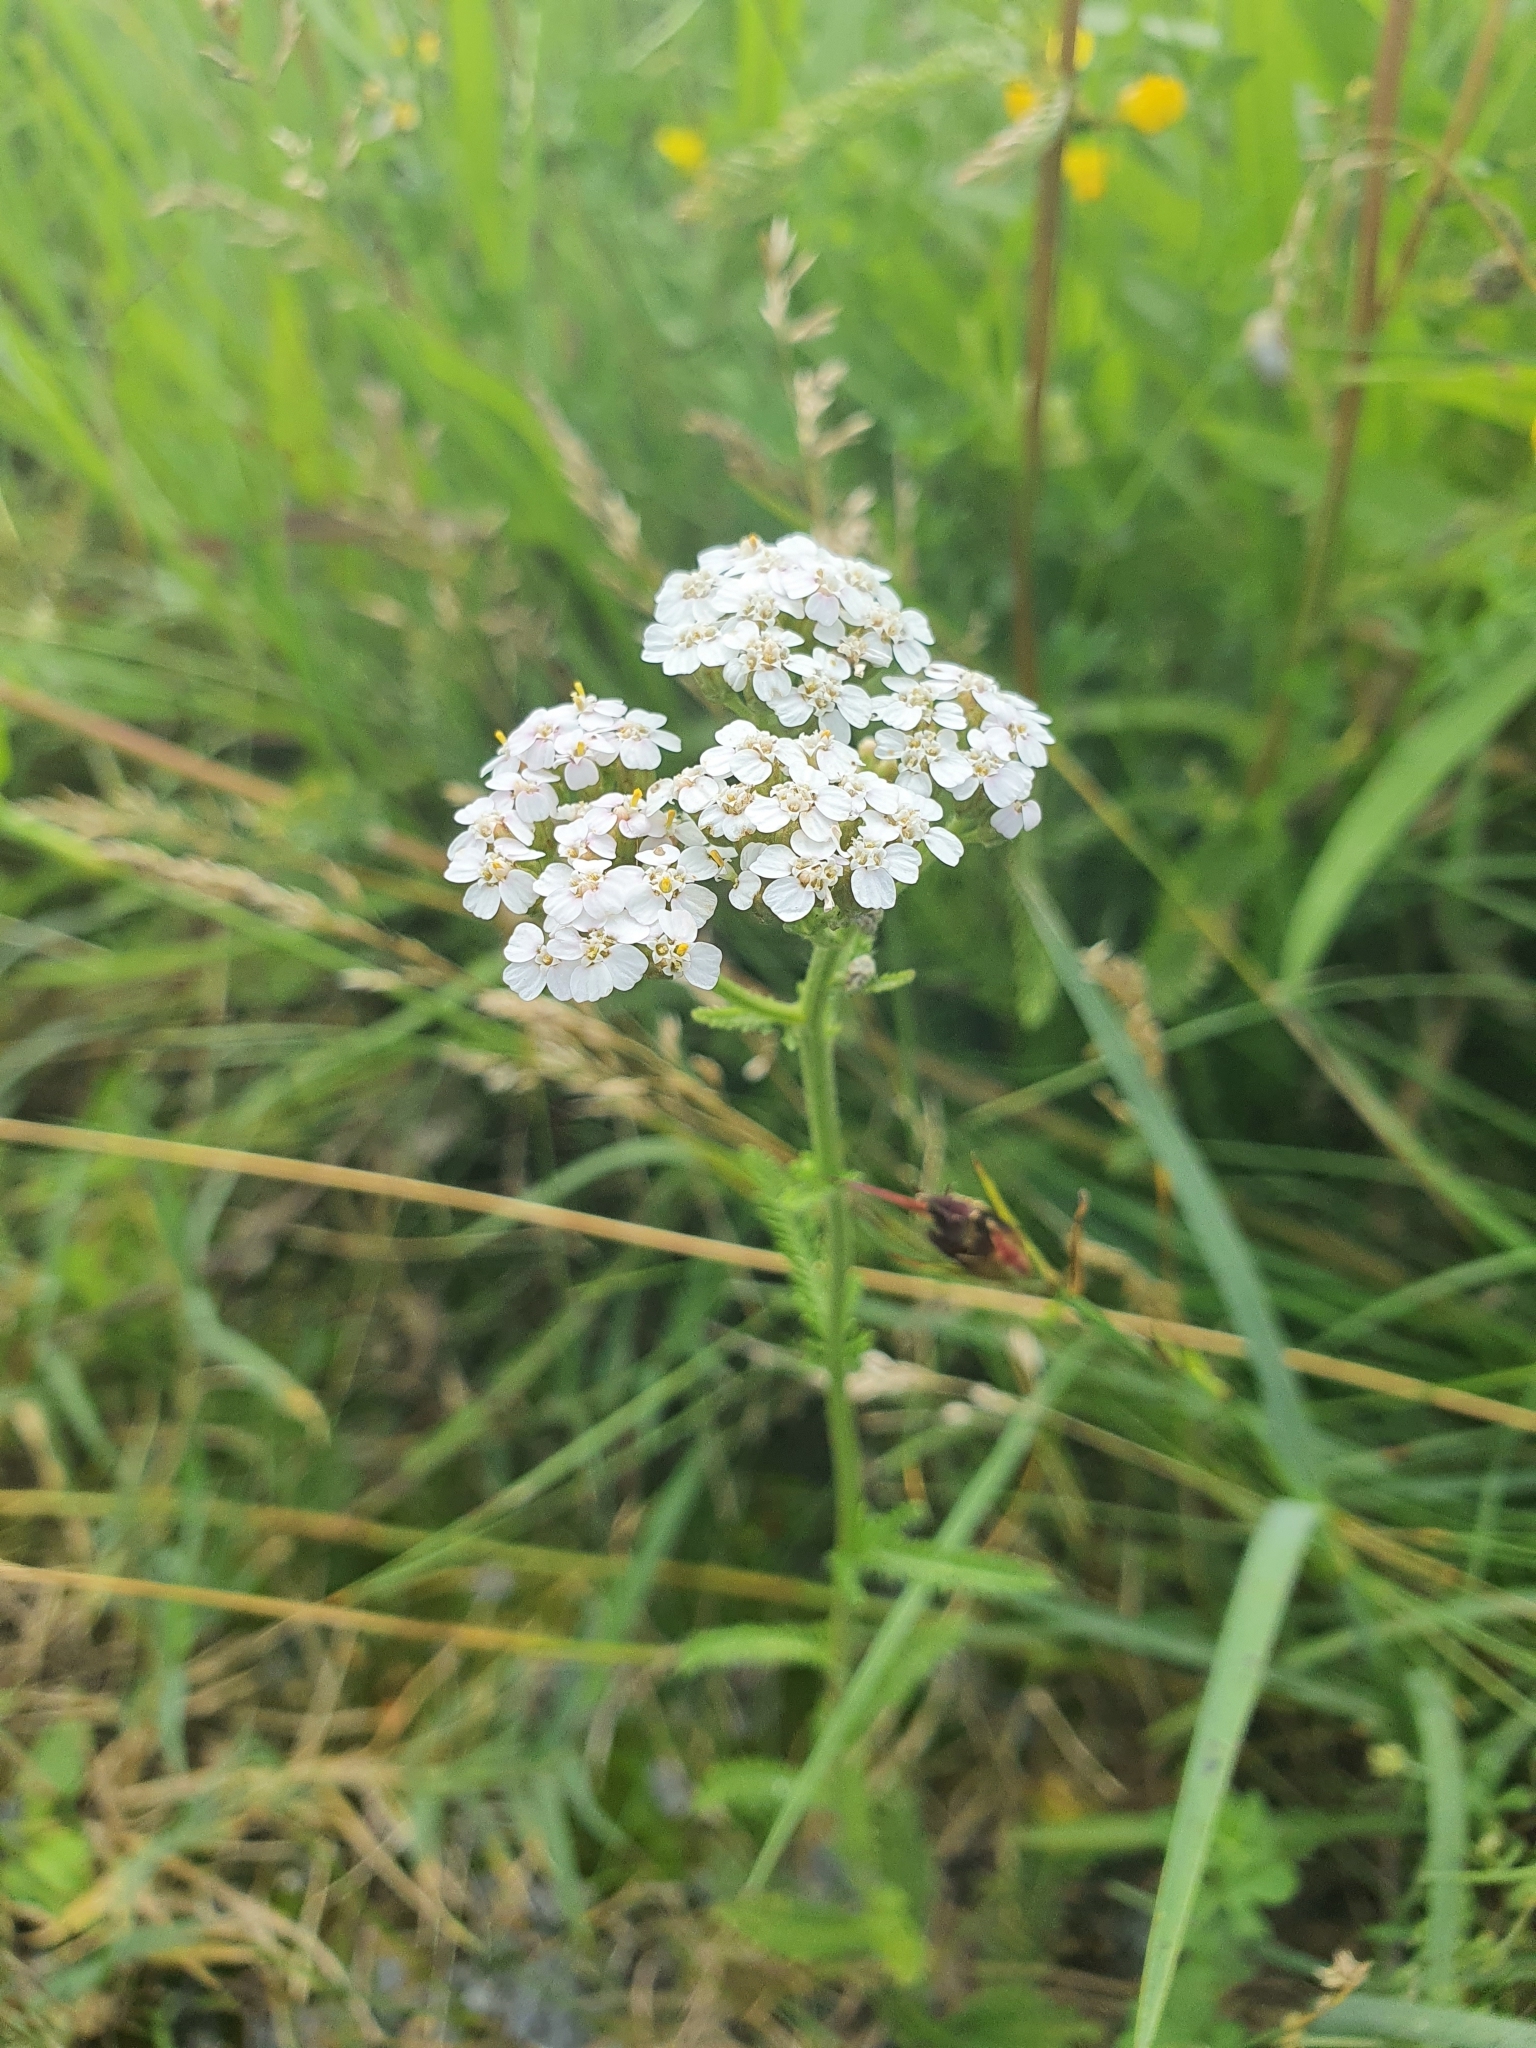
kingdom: Plantae
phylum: Tracheophyta
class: Magnoliopsida
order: Asterales
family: Asteraceae
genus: Achillea
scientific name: Achillea millefolium
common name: Yarrow
